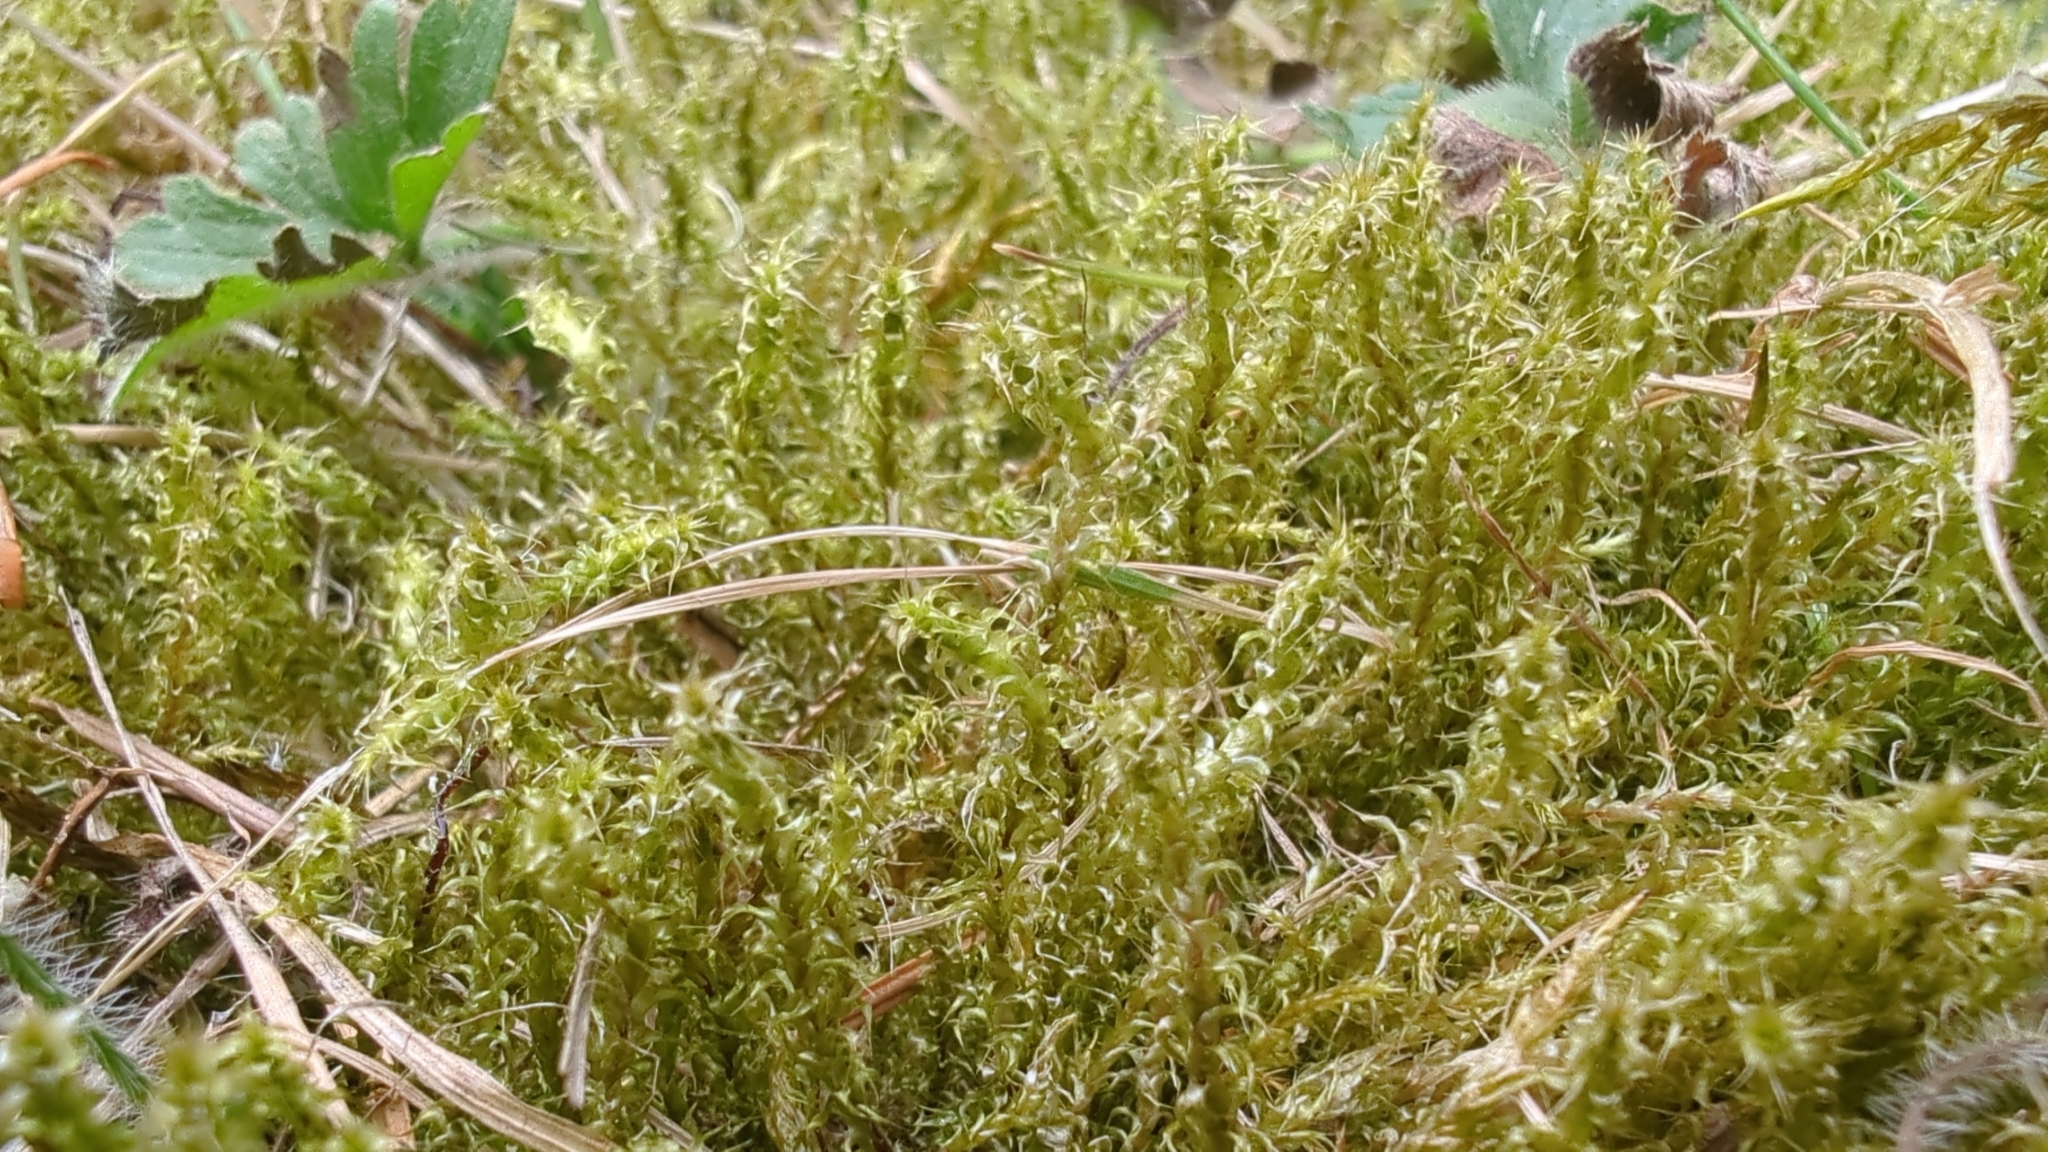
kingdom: Plantae
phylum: Bryophyta
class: Bryopsida
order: Hypnales
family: Hylocomiaceae
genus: Rhytidiadelphus
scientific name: Rhytidiadelphus squarrosus
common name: Springy turf-moss
